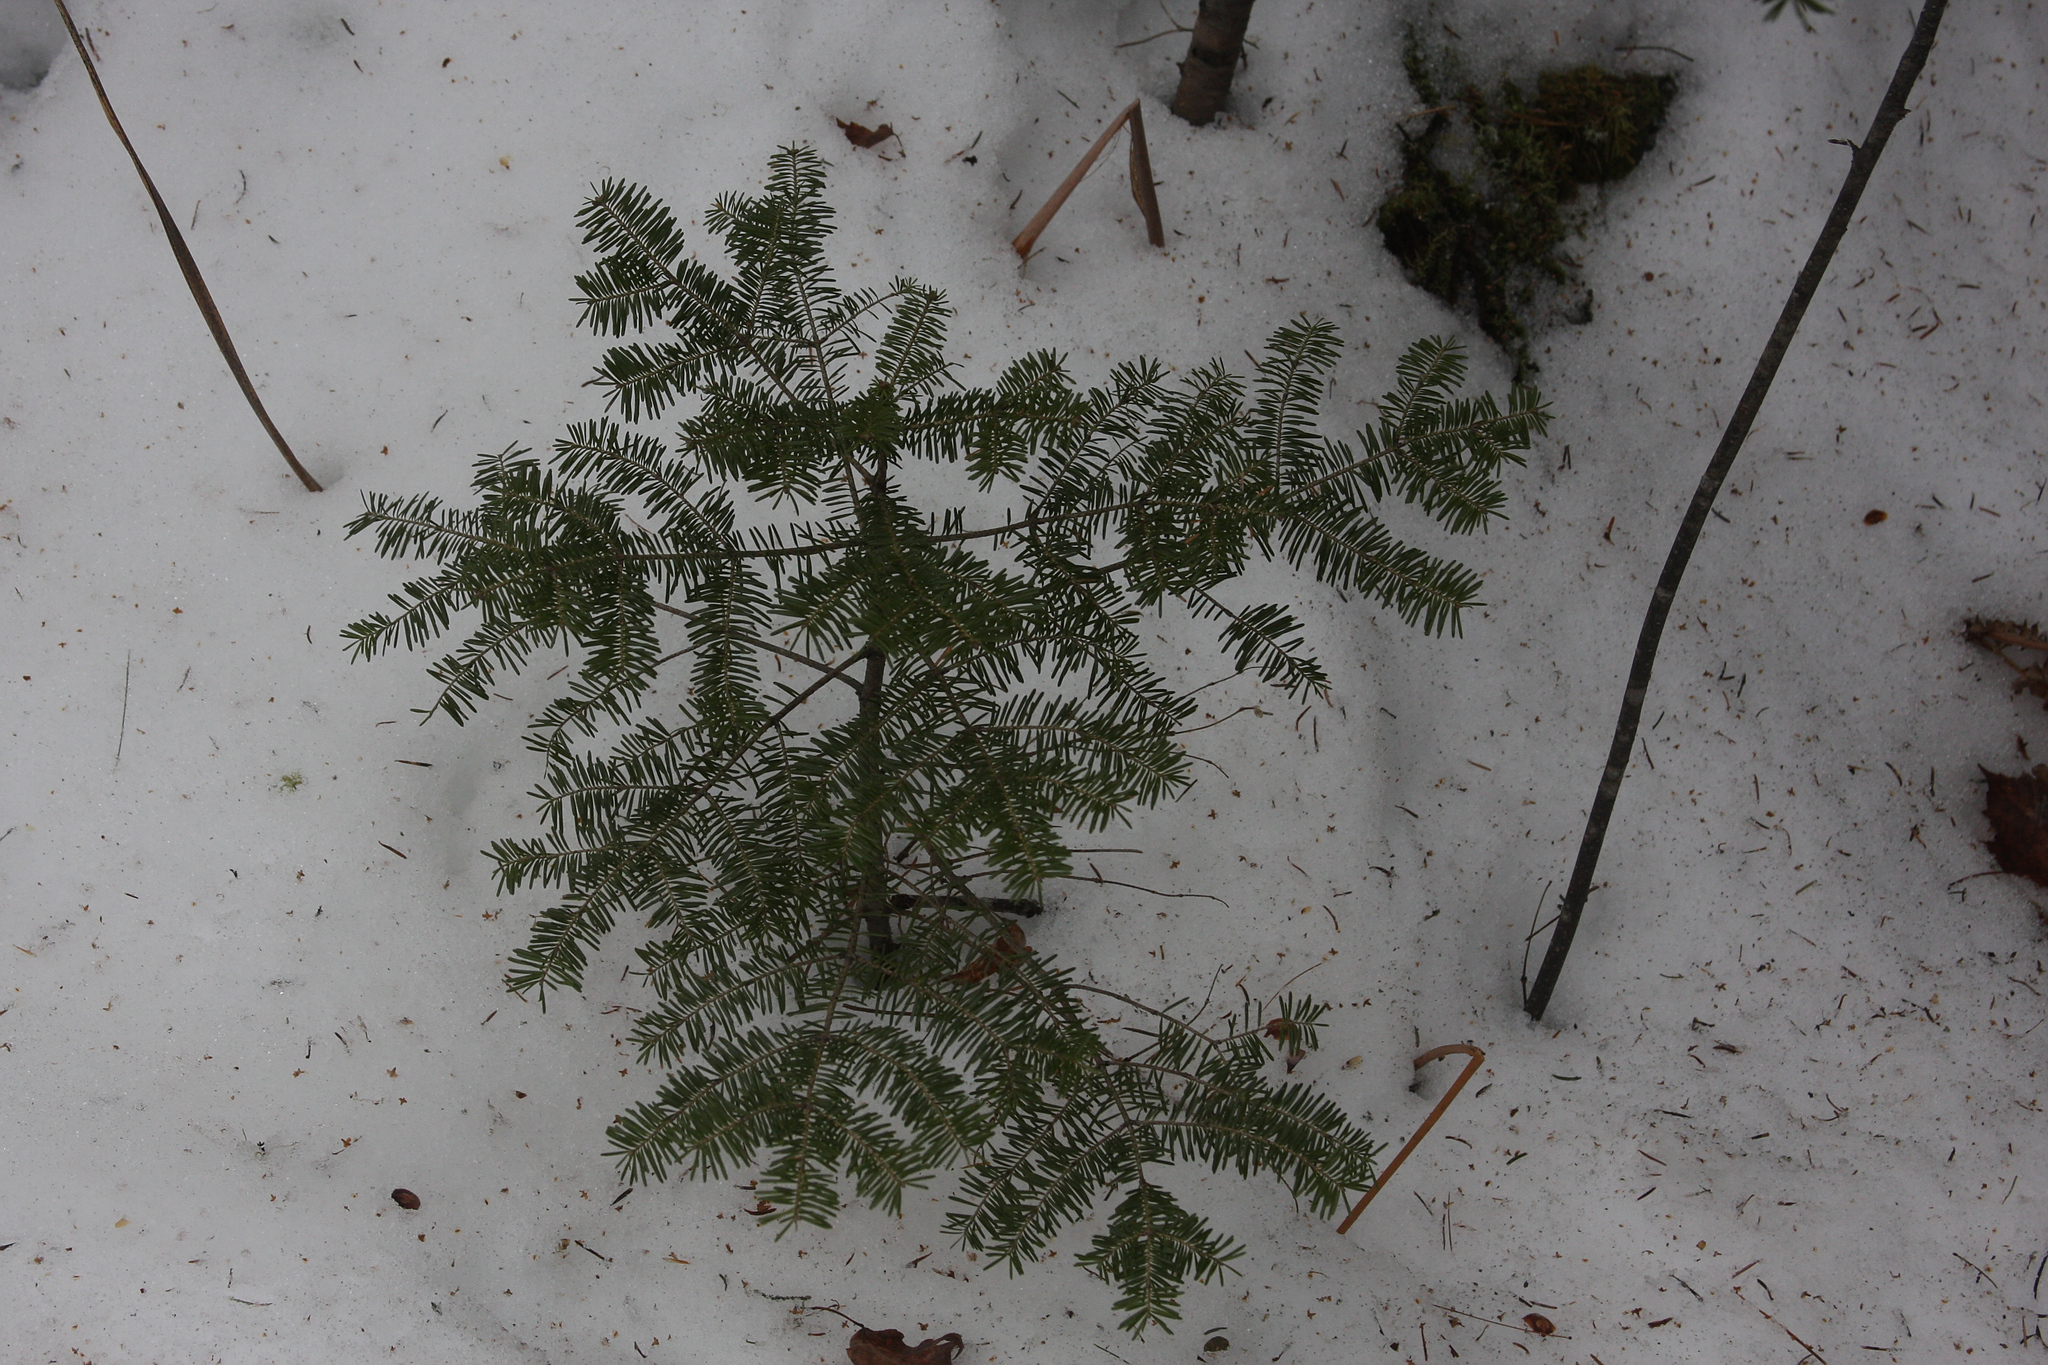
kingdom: Plantae
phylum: Tracheophyta
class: Pinopsida
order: Pinales
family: Pinaceae
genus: Abies
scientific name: Abies balsamea
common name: Balsam fir
